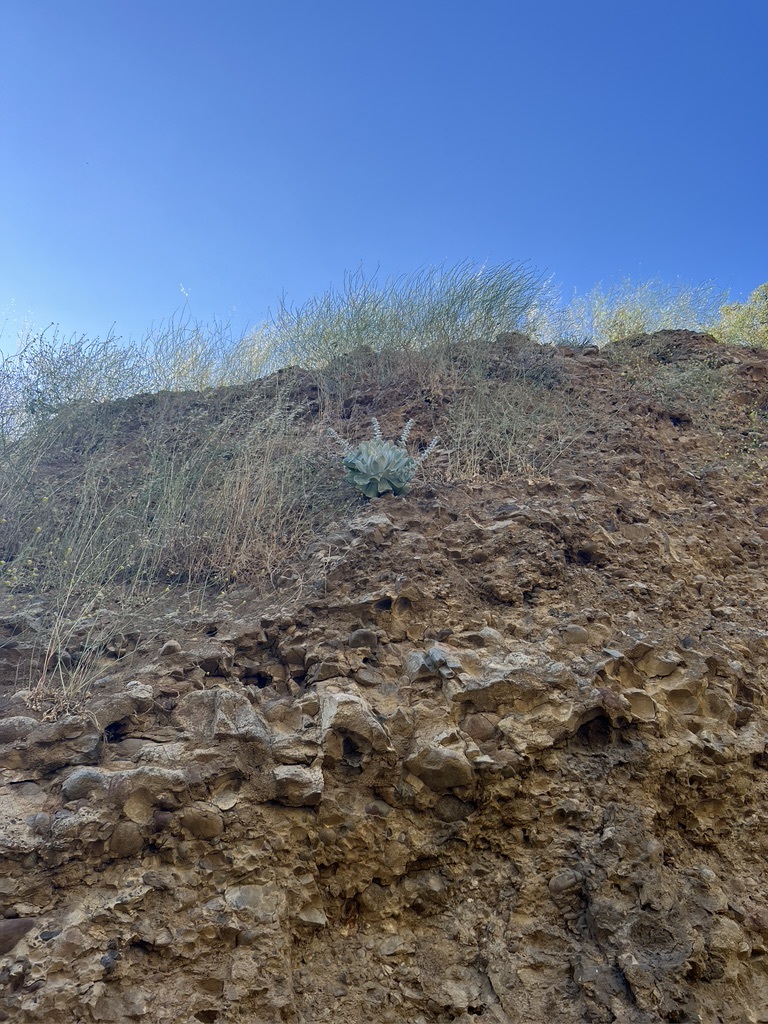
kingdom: Plantae
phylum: Tracheophyta
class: Magnoliopsida
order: Saxifragales
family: Crassulaceae
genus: Dudleya
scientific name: Dudleya pulverulenta
